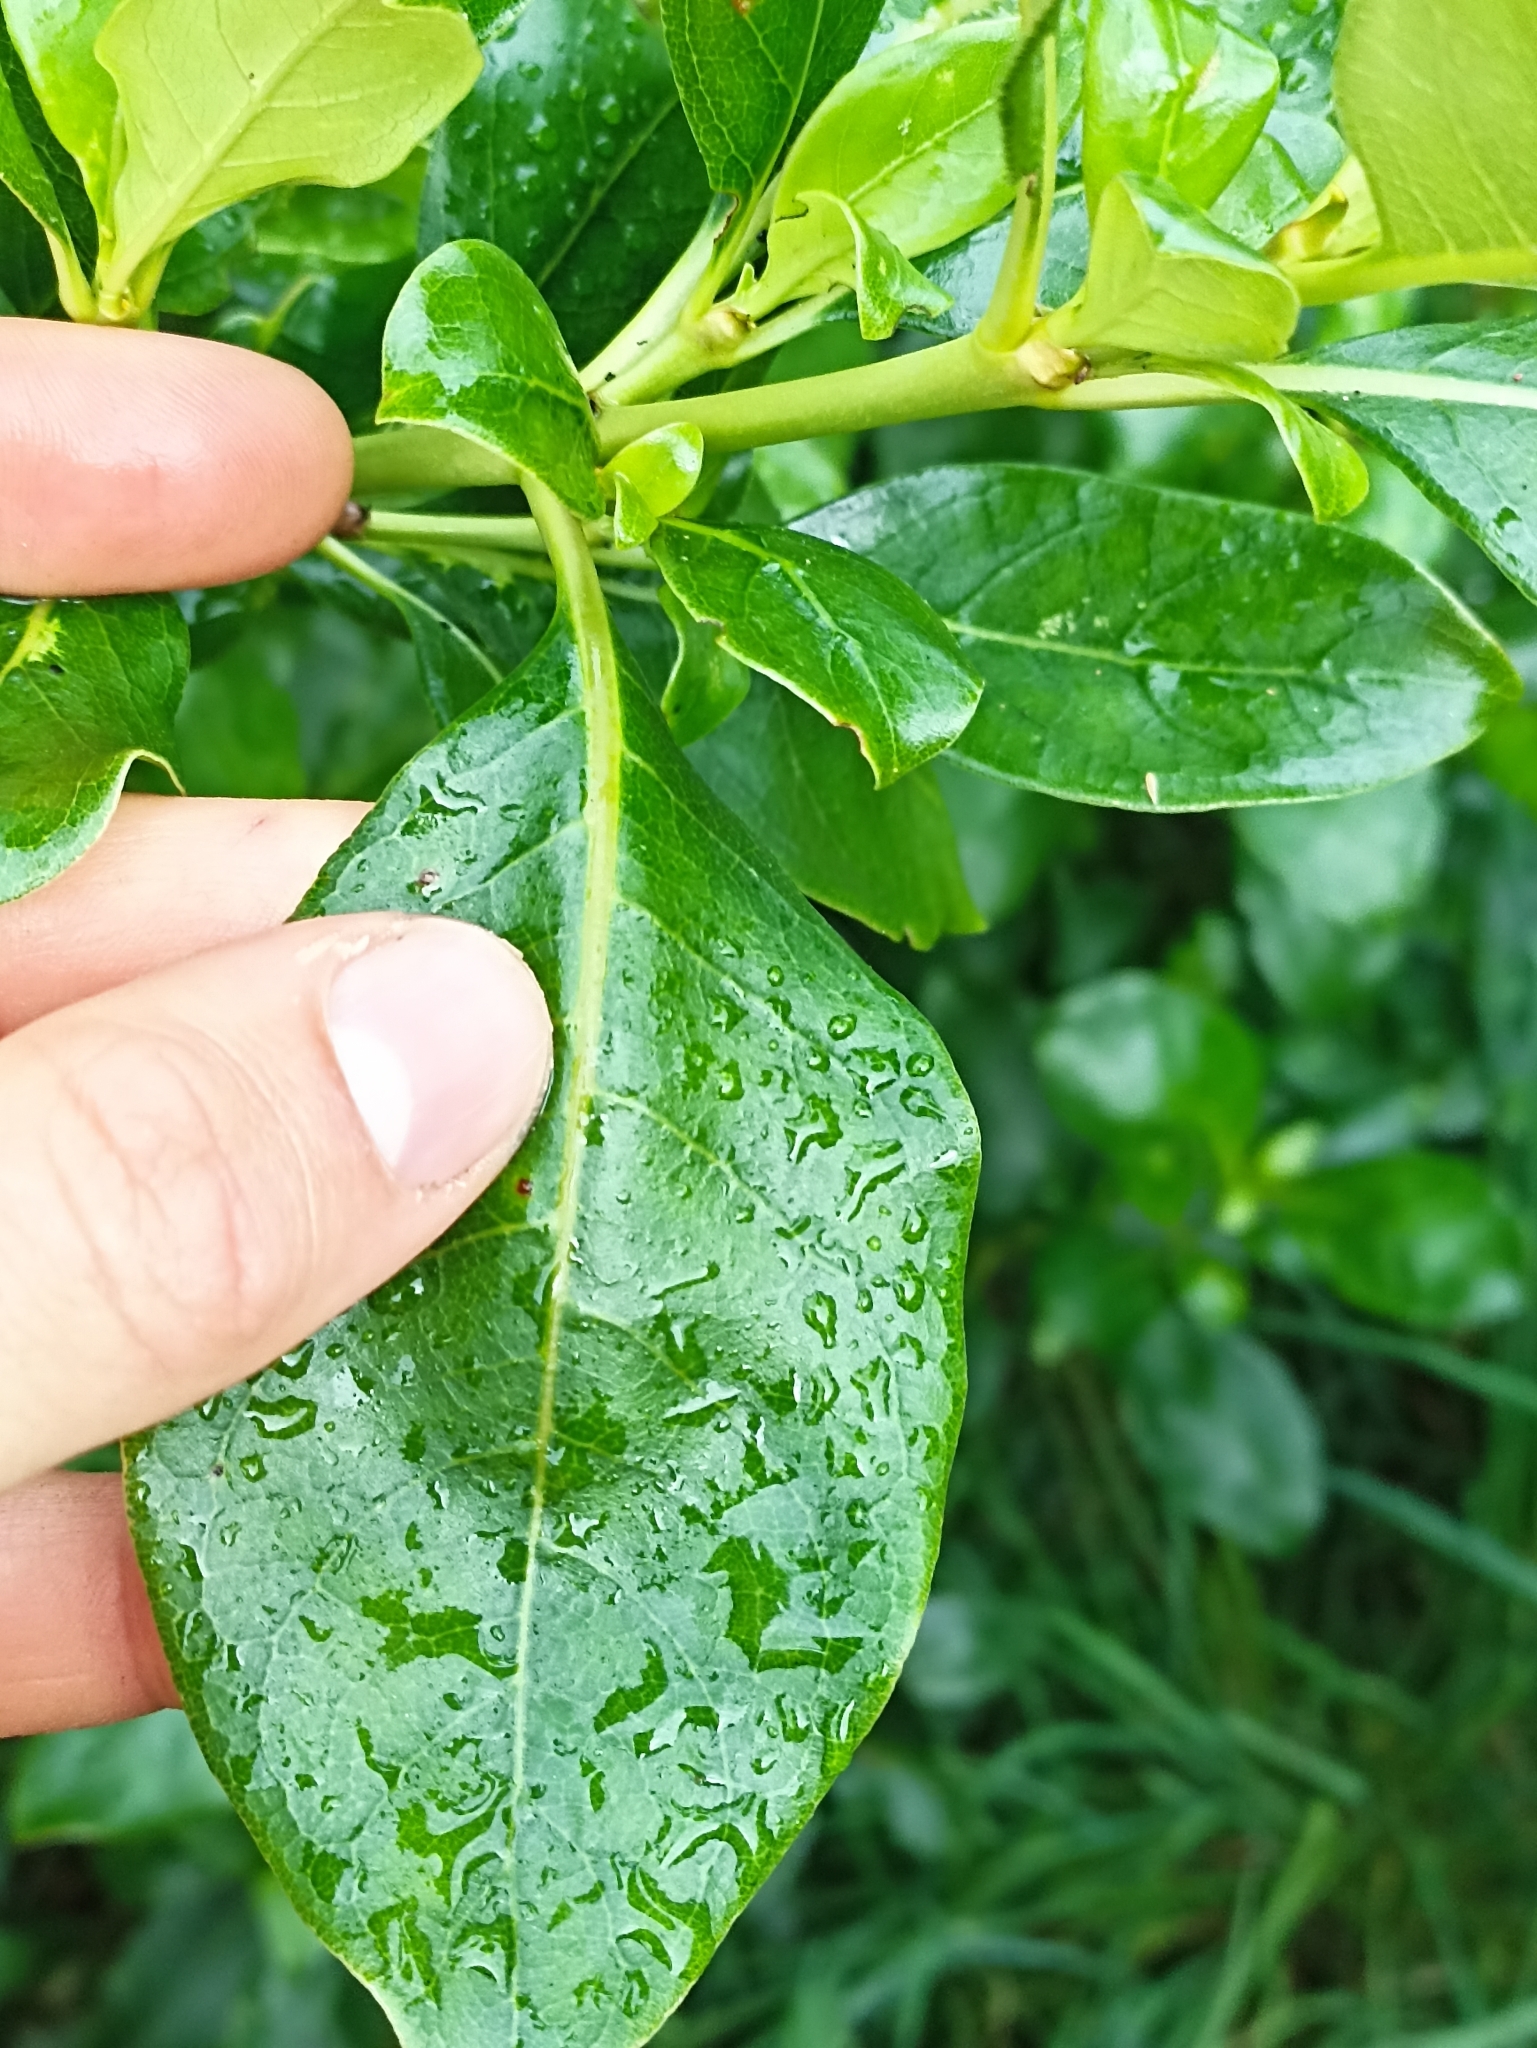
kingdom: Plantae
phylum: Tracheophyta
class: Magnoliopsida
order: Gentianales
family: Rubiaceae
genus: Coprosma
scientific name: Coprosma macrocarpa
